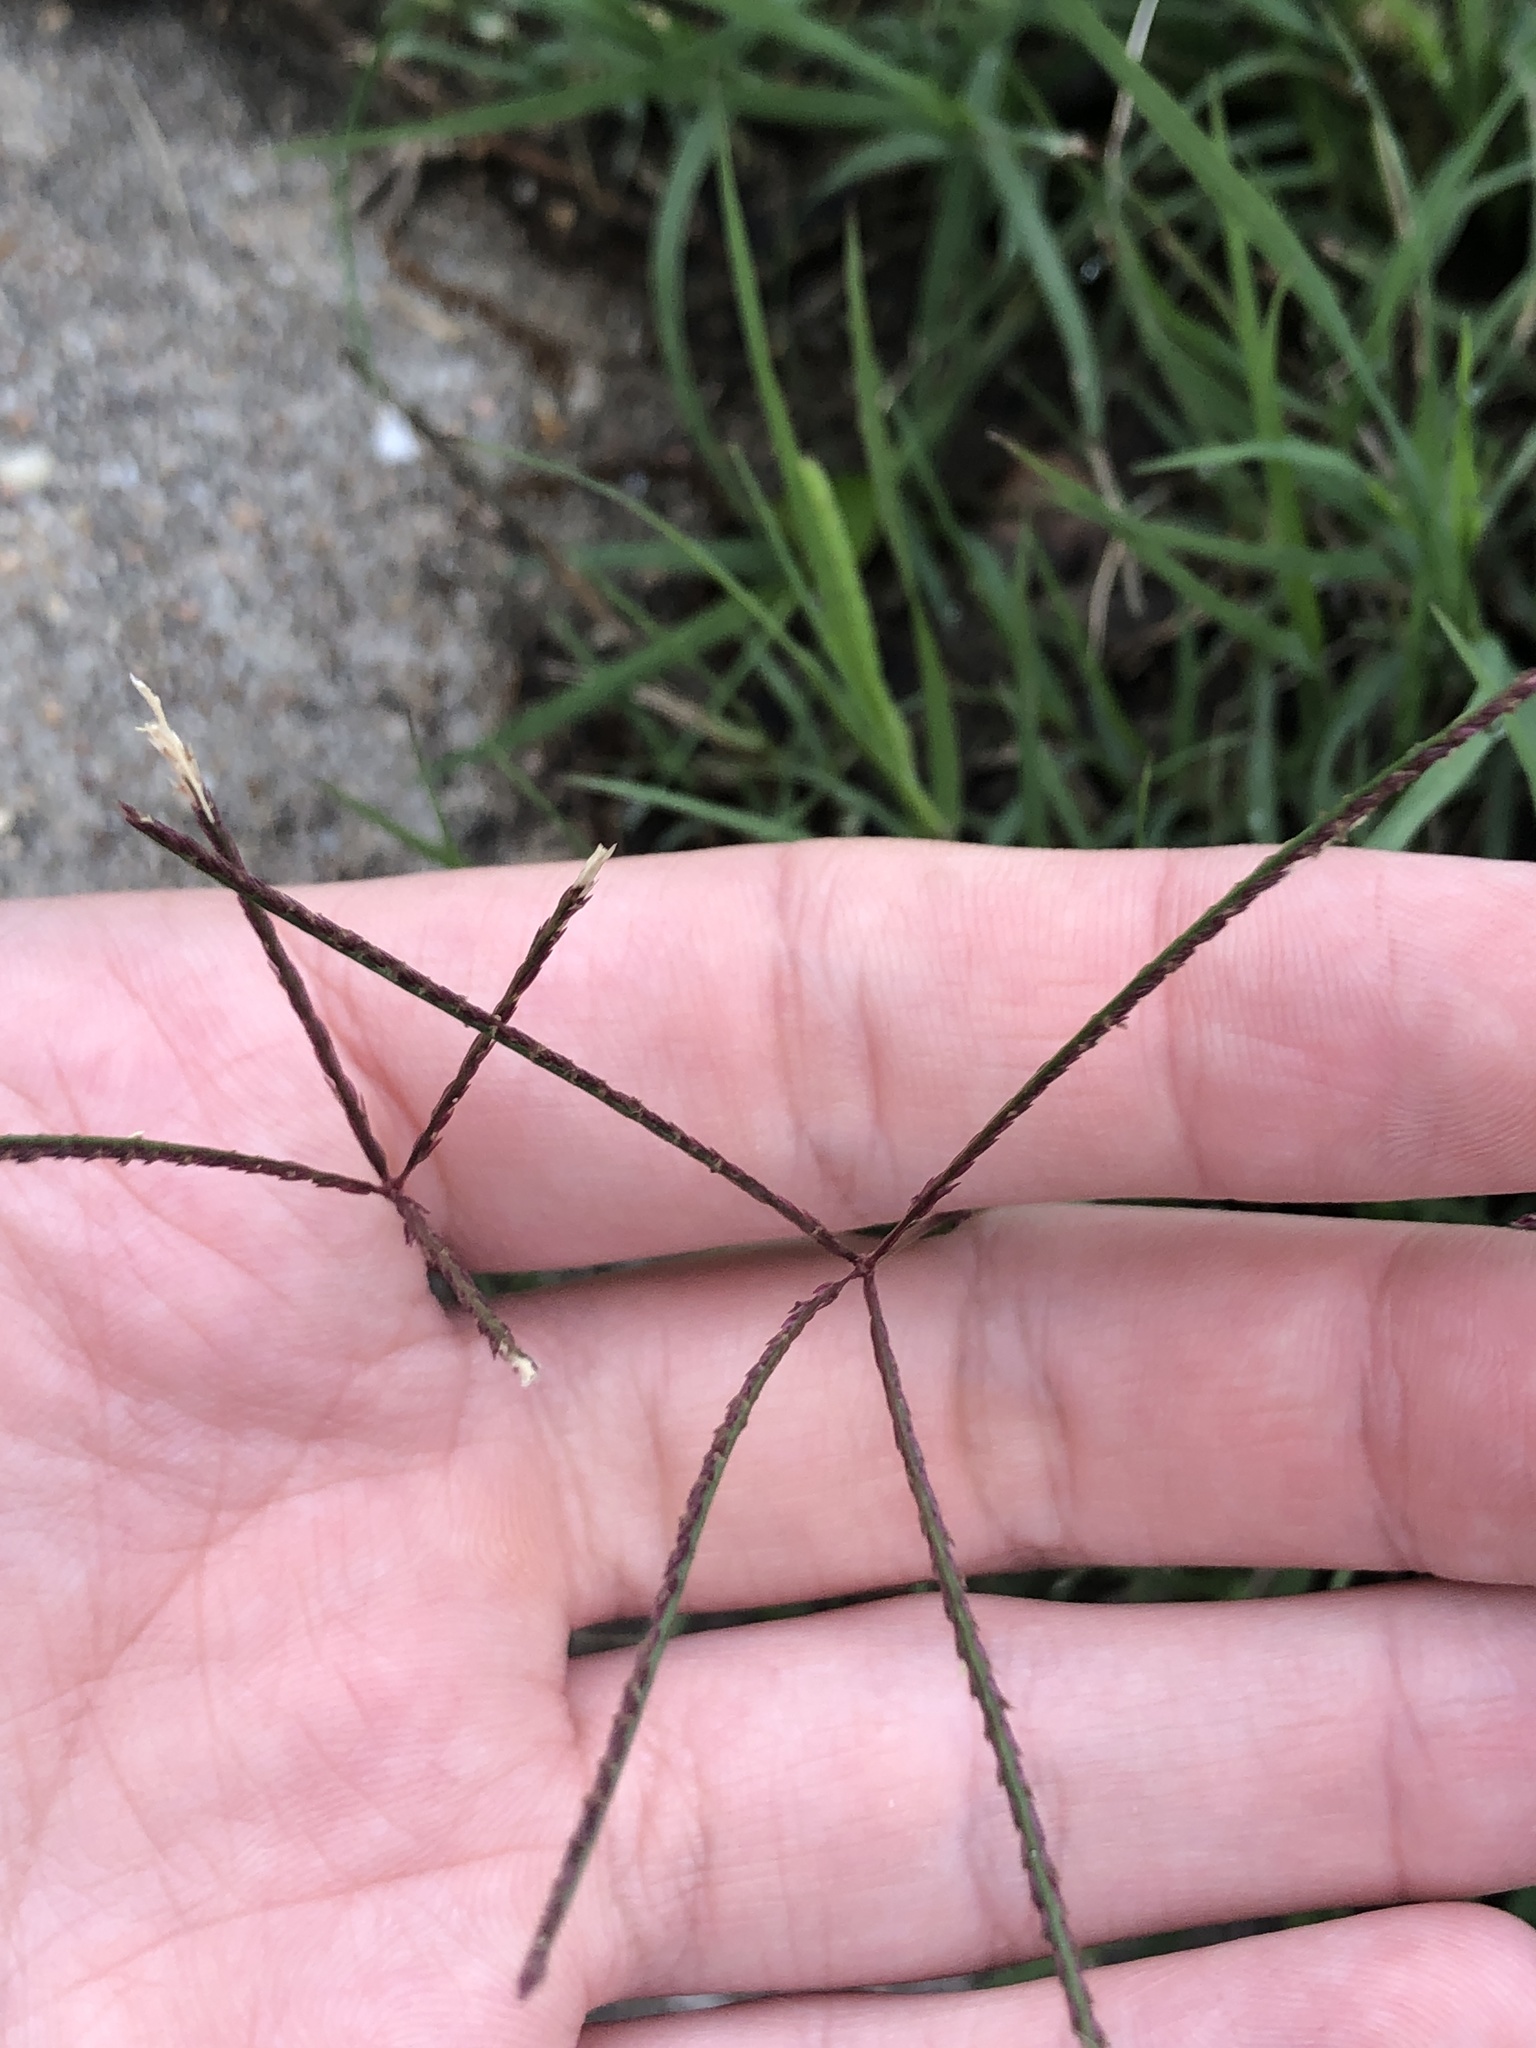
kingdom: Plantae
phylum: Tracheophyta
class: Liliopsida
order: Poales
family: Poaceae
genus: Cynodon
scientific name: Cynodon dactylon
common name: Bermuda grass
